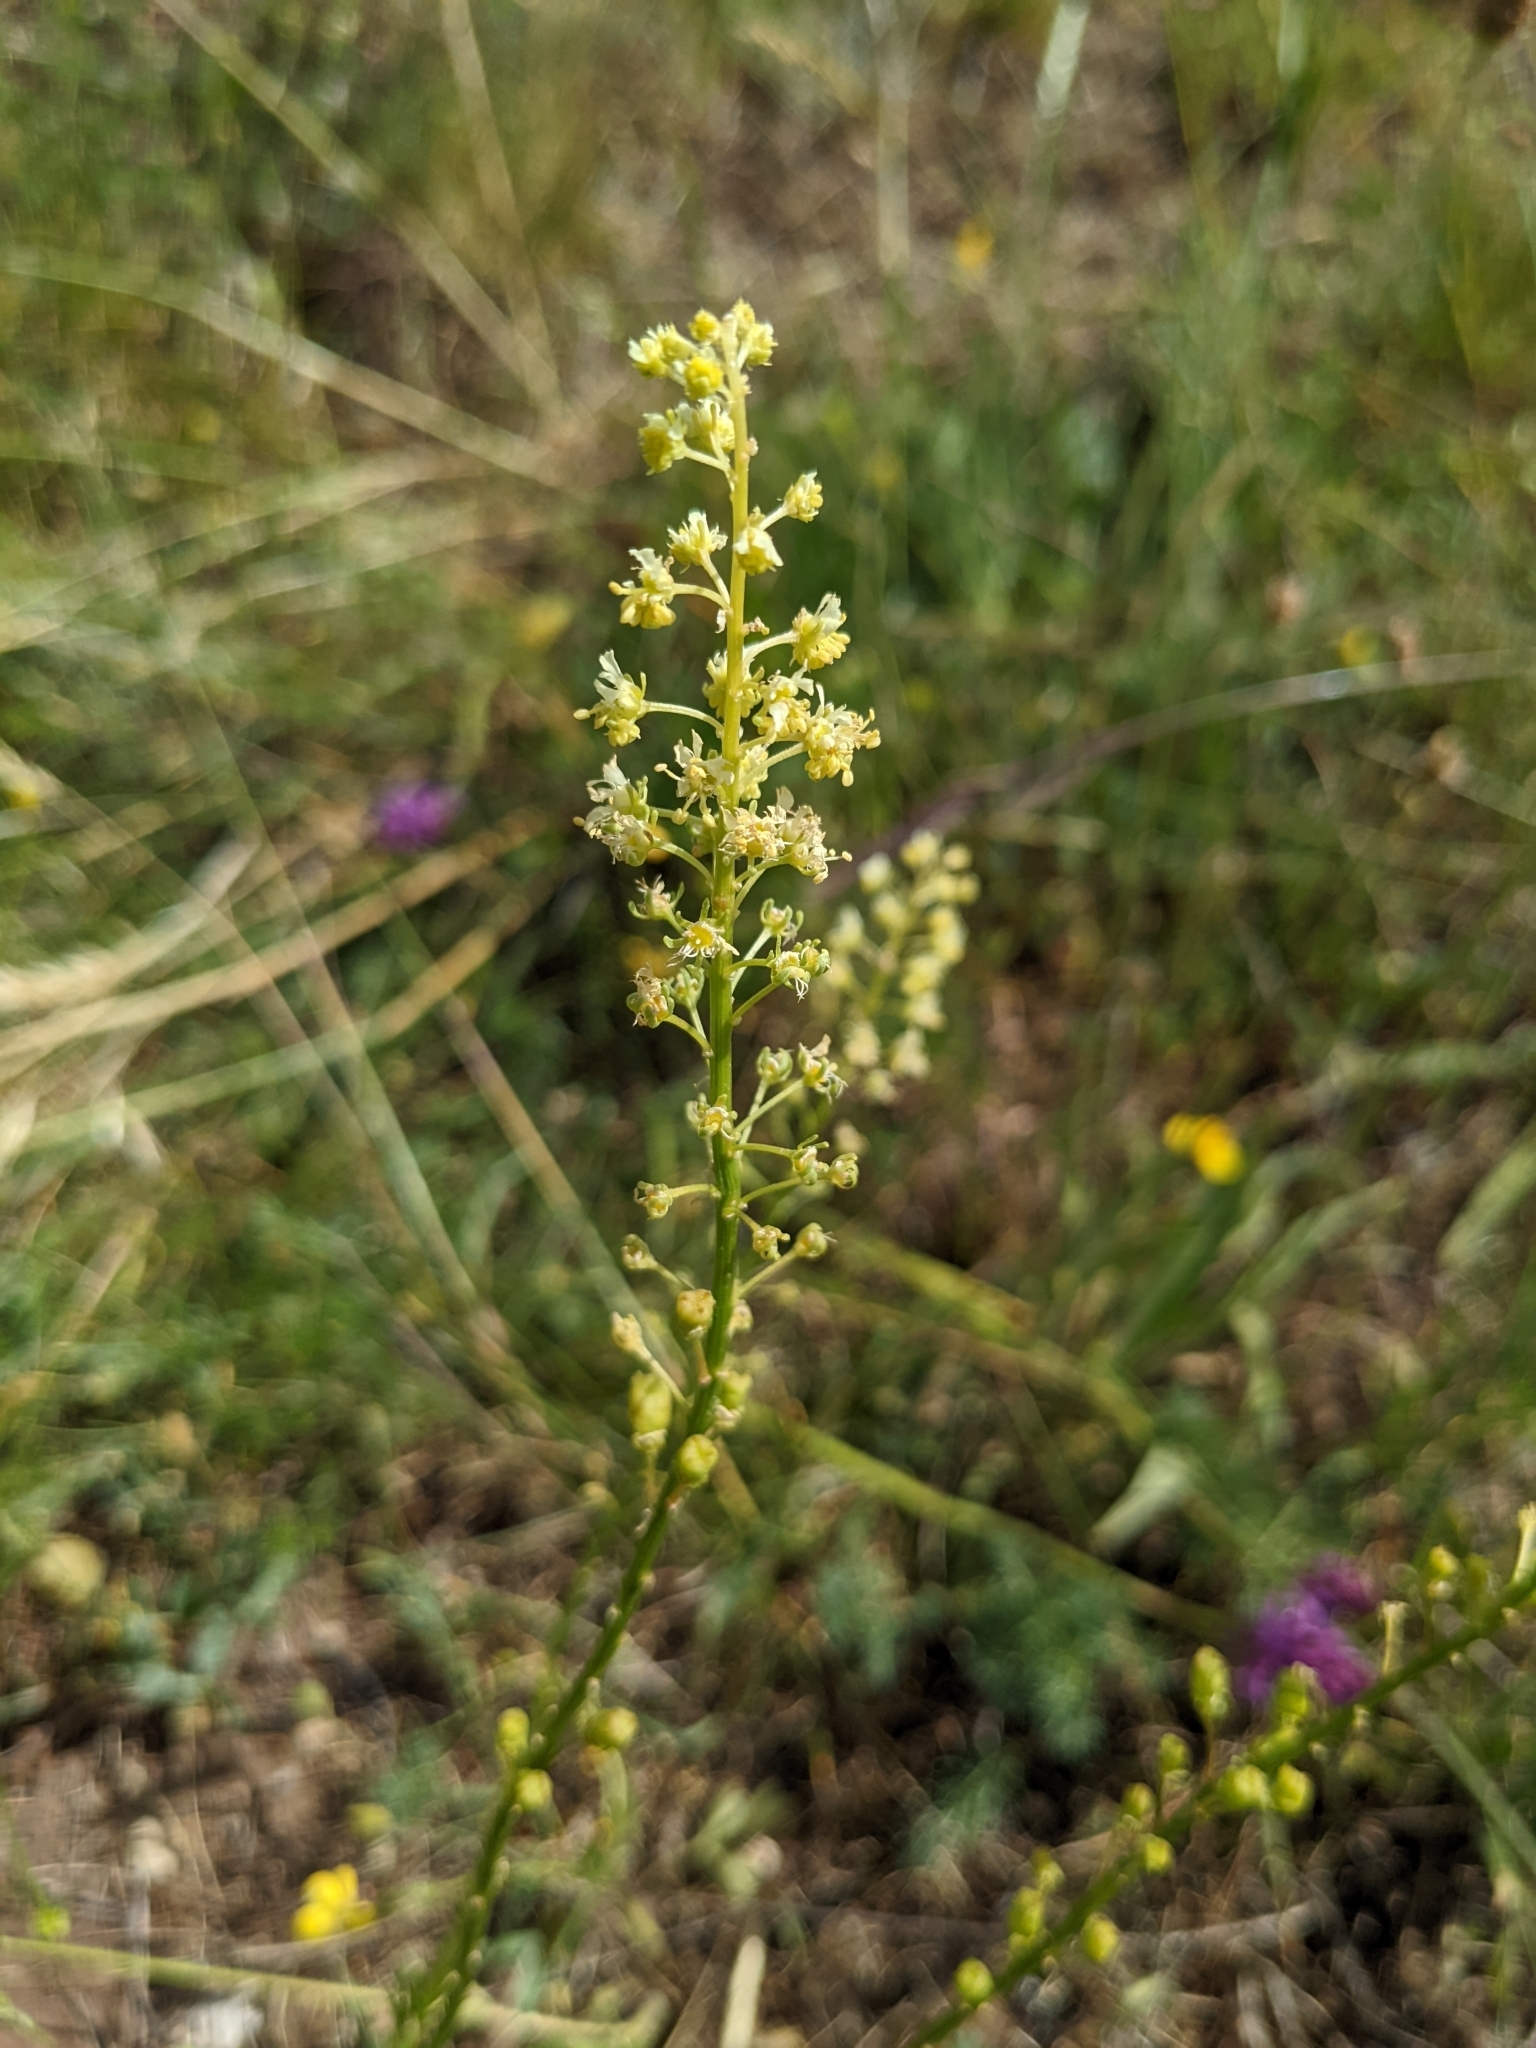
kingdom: Plantae
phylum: Tracheophyta
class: Magnoliopsida
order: Brassicales
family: Resedaceae
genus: Reseda
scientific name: Reseda lutea
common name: Wild mignonette
